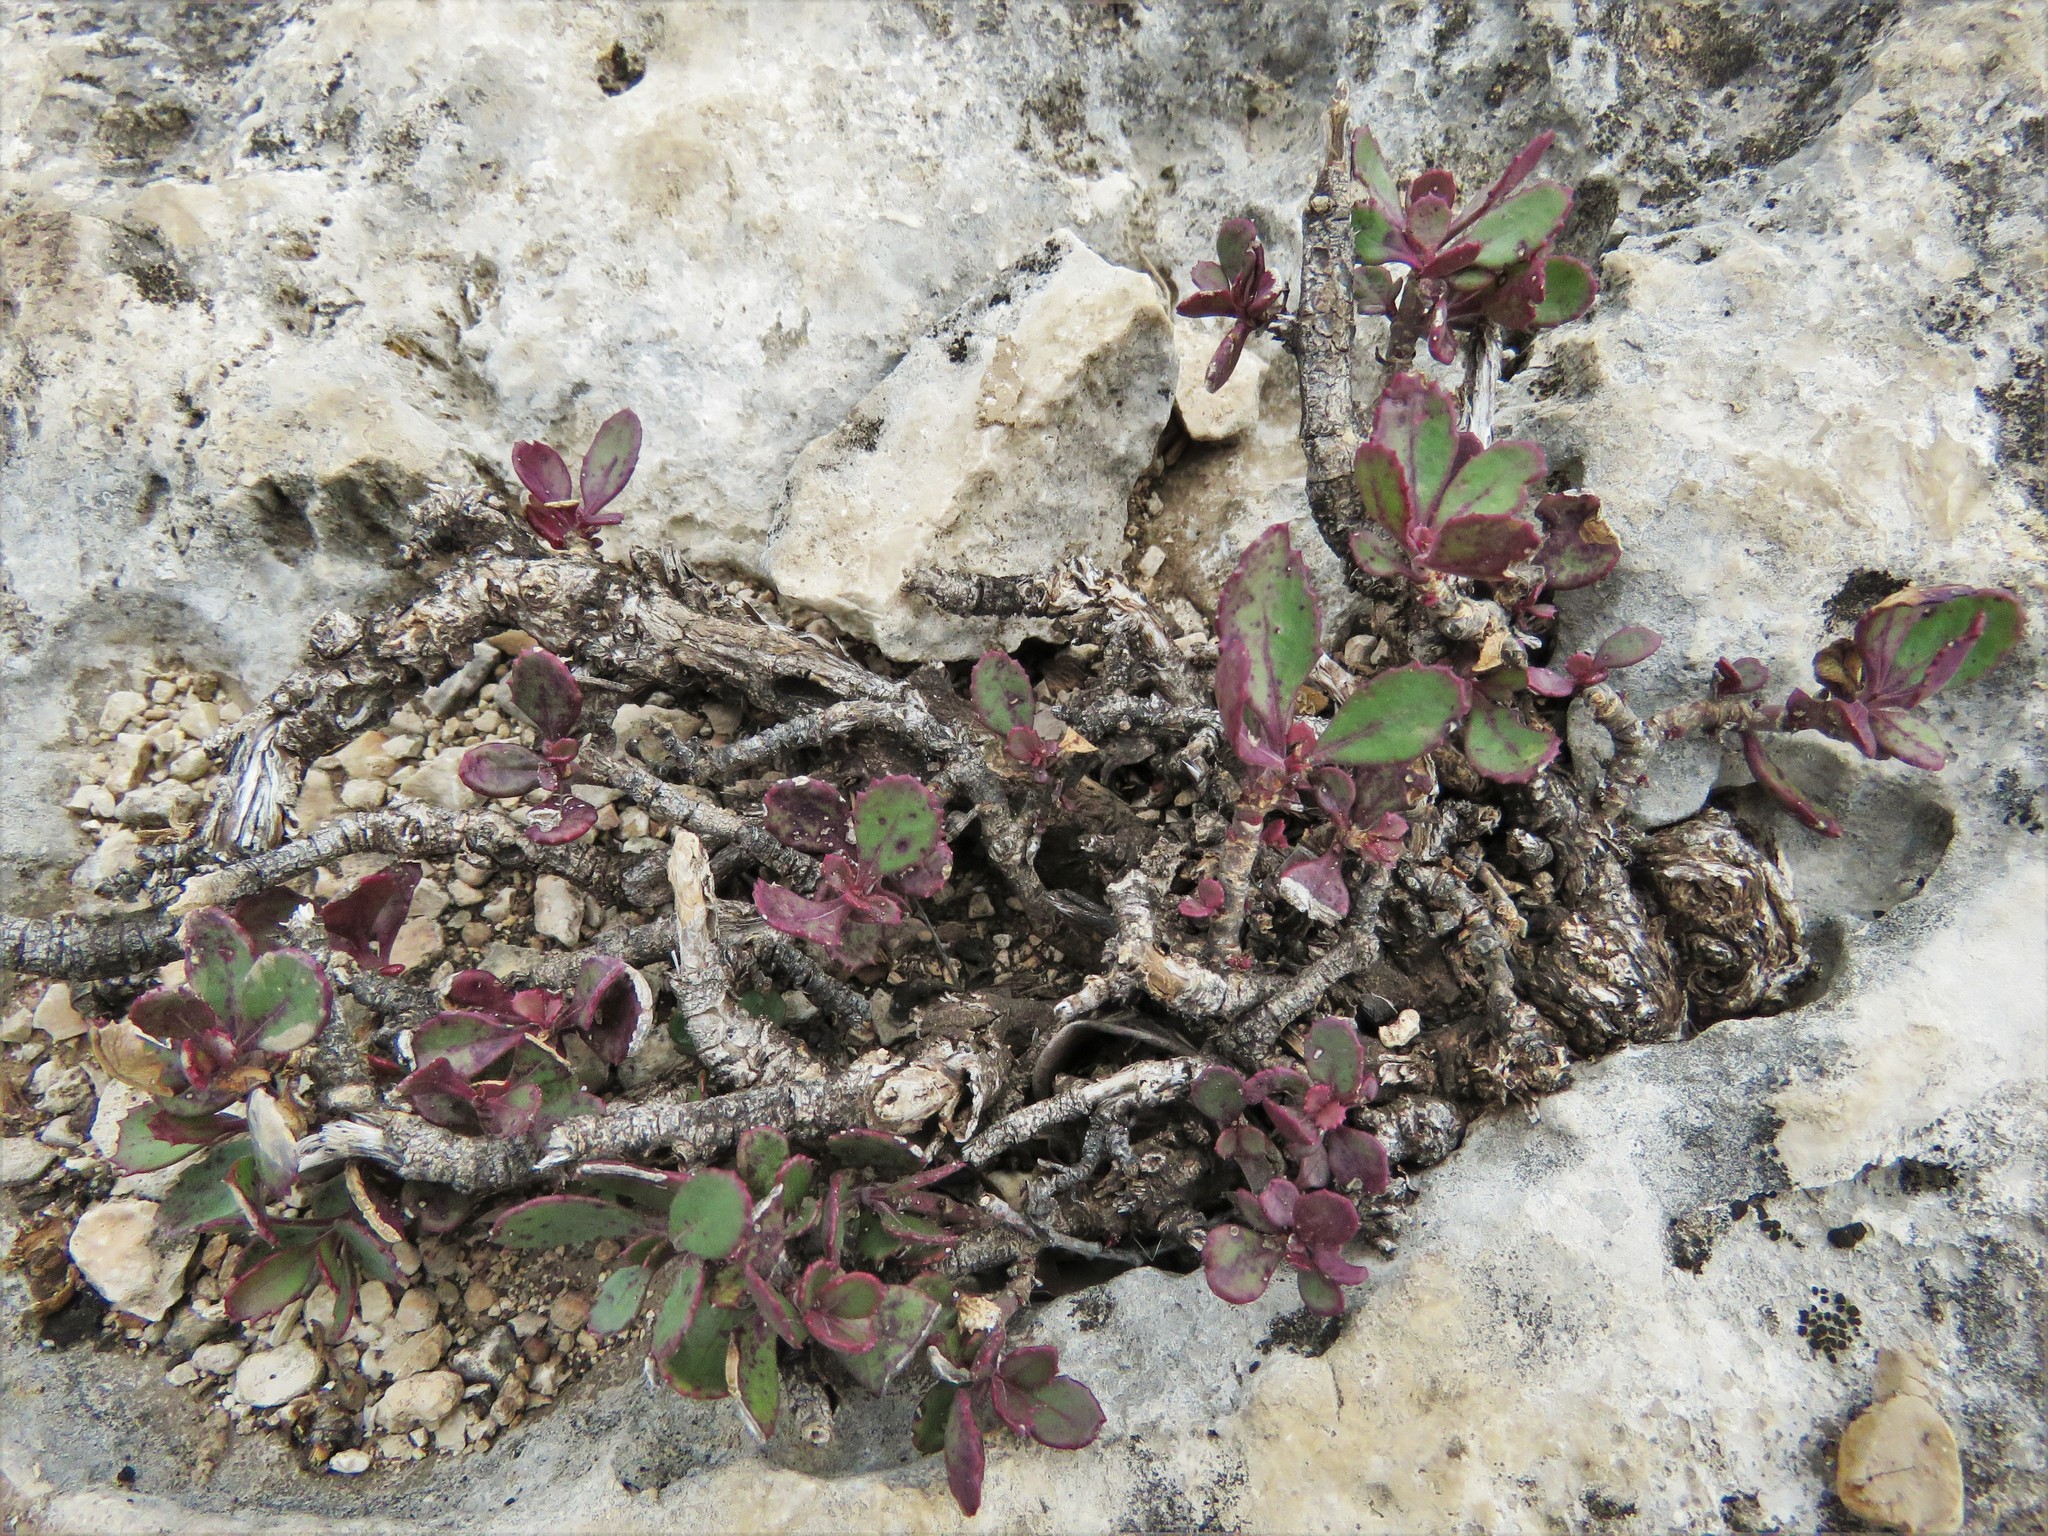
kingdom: Plantae
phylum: Tracheophyta
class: Magnoliopsida
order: Lamiales
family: Plantaginaceae
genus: Penstemon
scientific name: Penstemon baccharifolius
